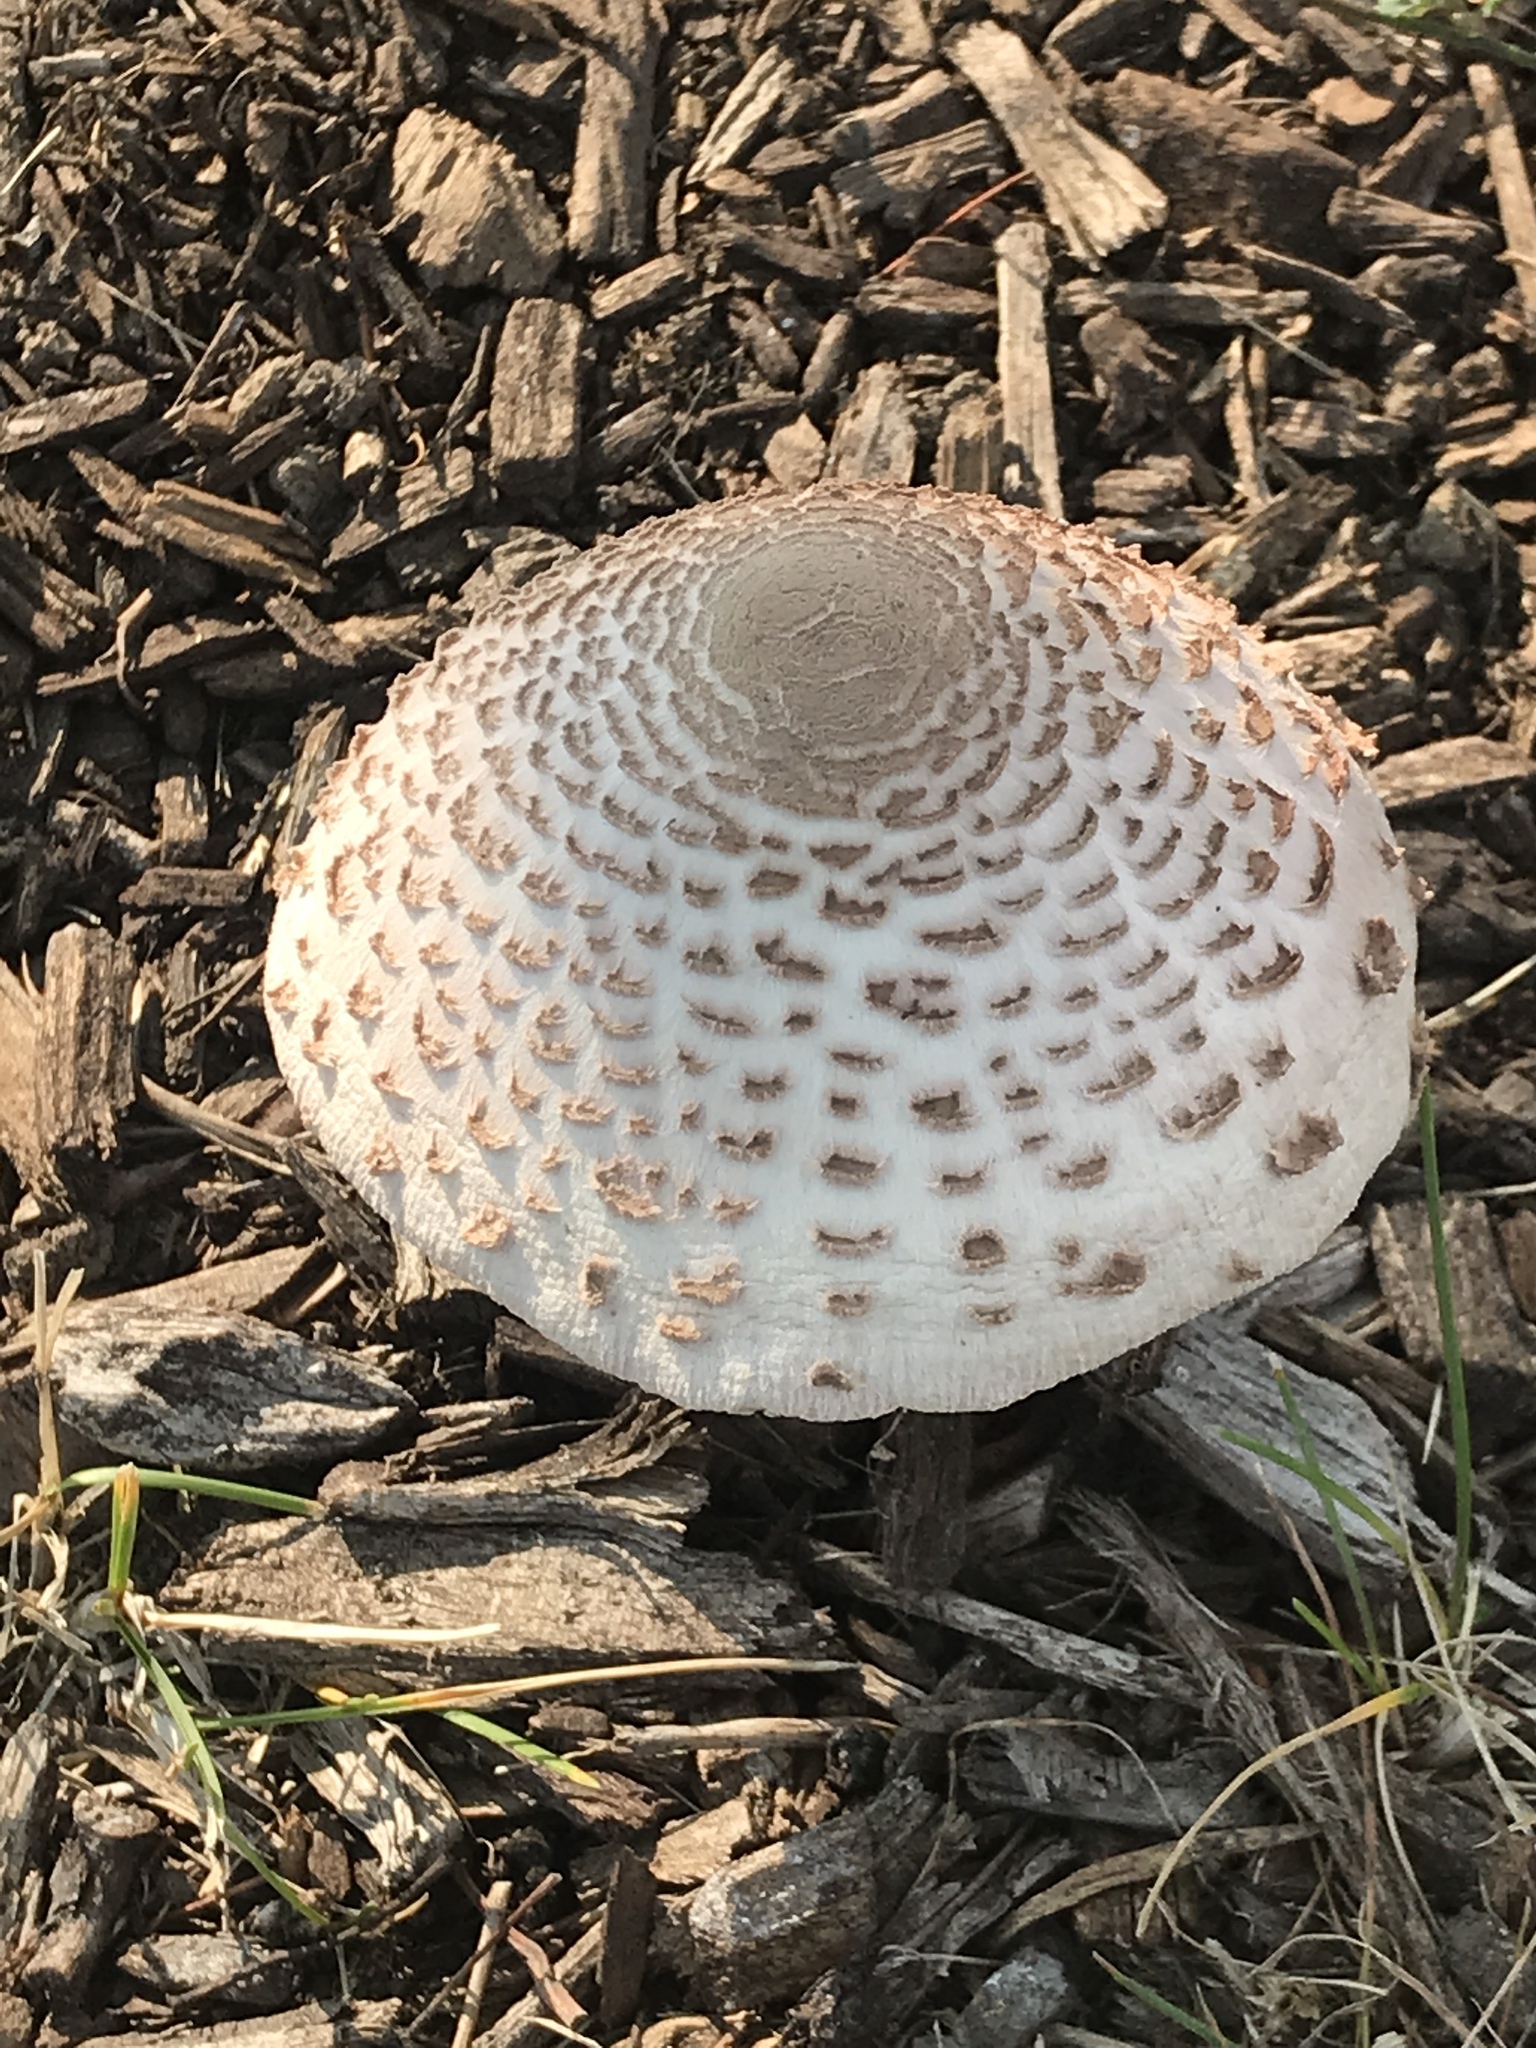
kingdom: Fungi
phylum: Basidiomycota
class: Agaricomycetes
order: Agaricales
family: Agaricaceae
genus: Leucoagaricus
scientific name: Leucoagaricus americanus
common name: Reddening lepiota
